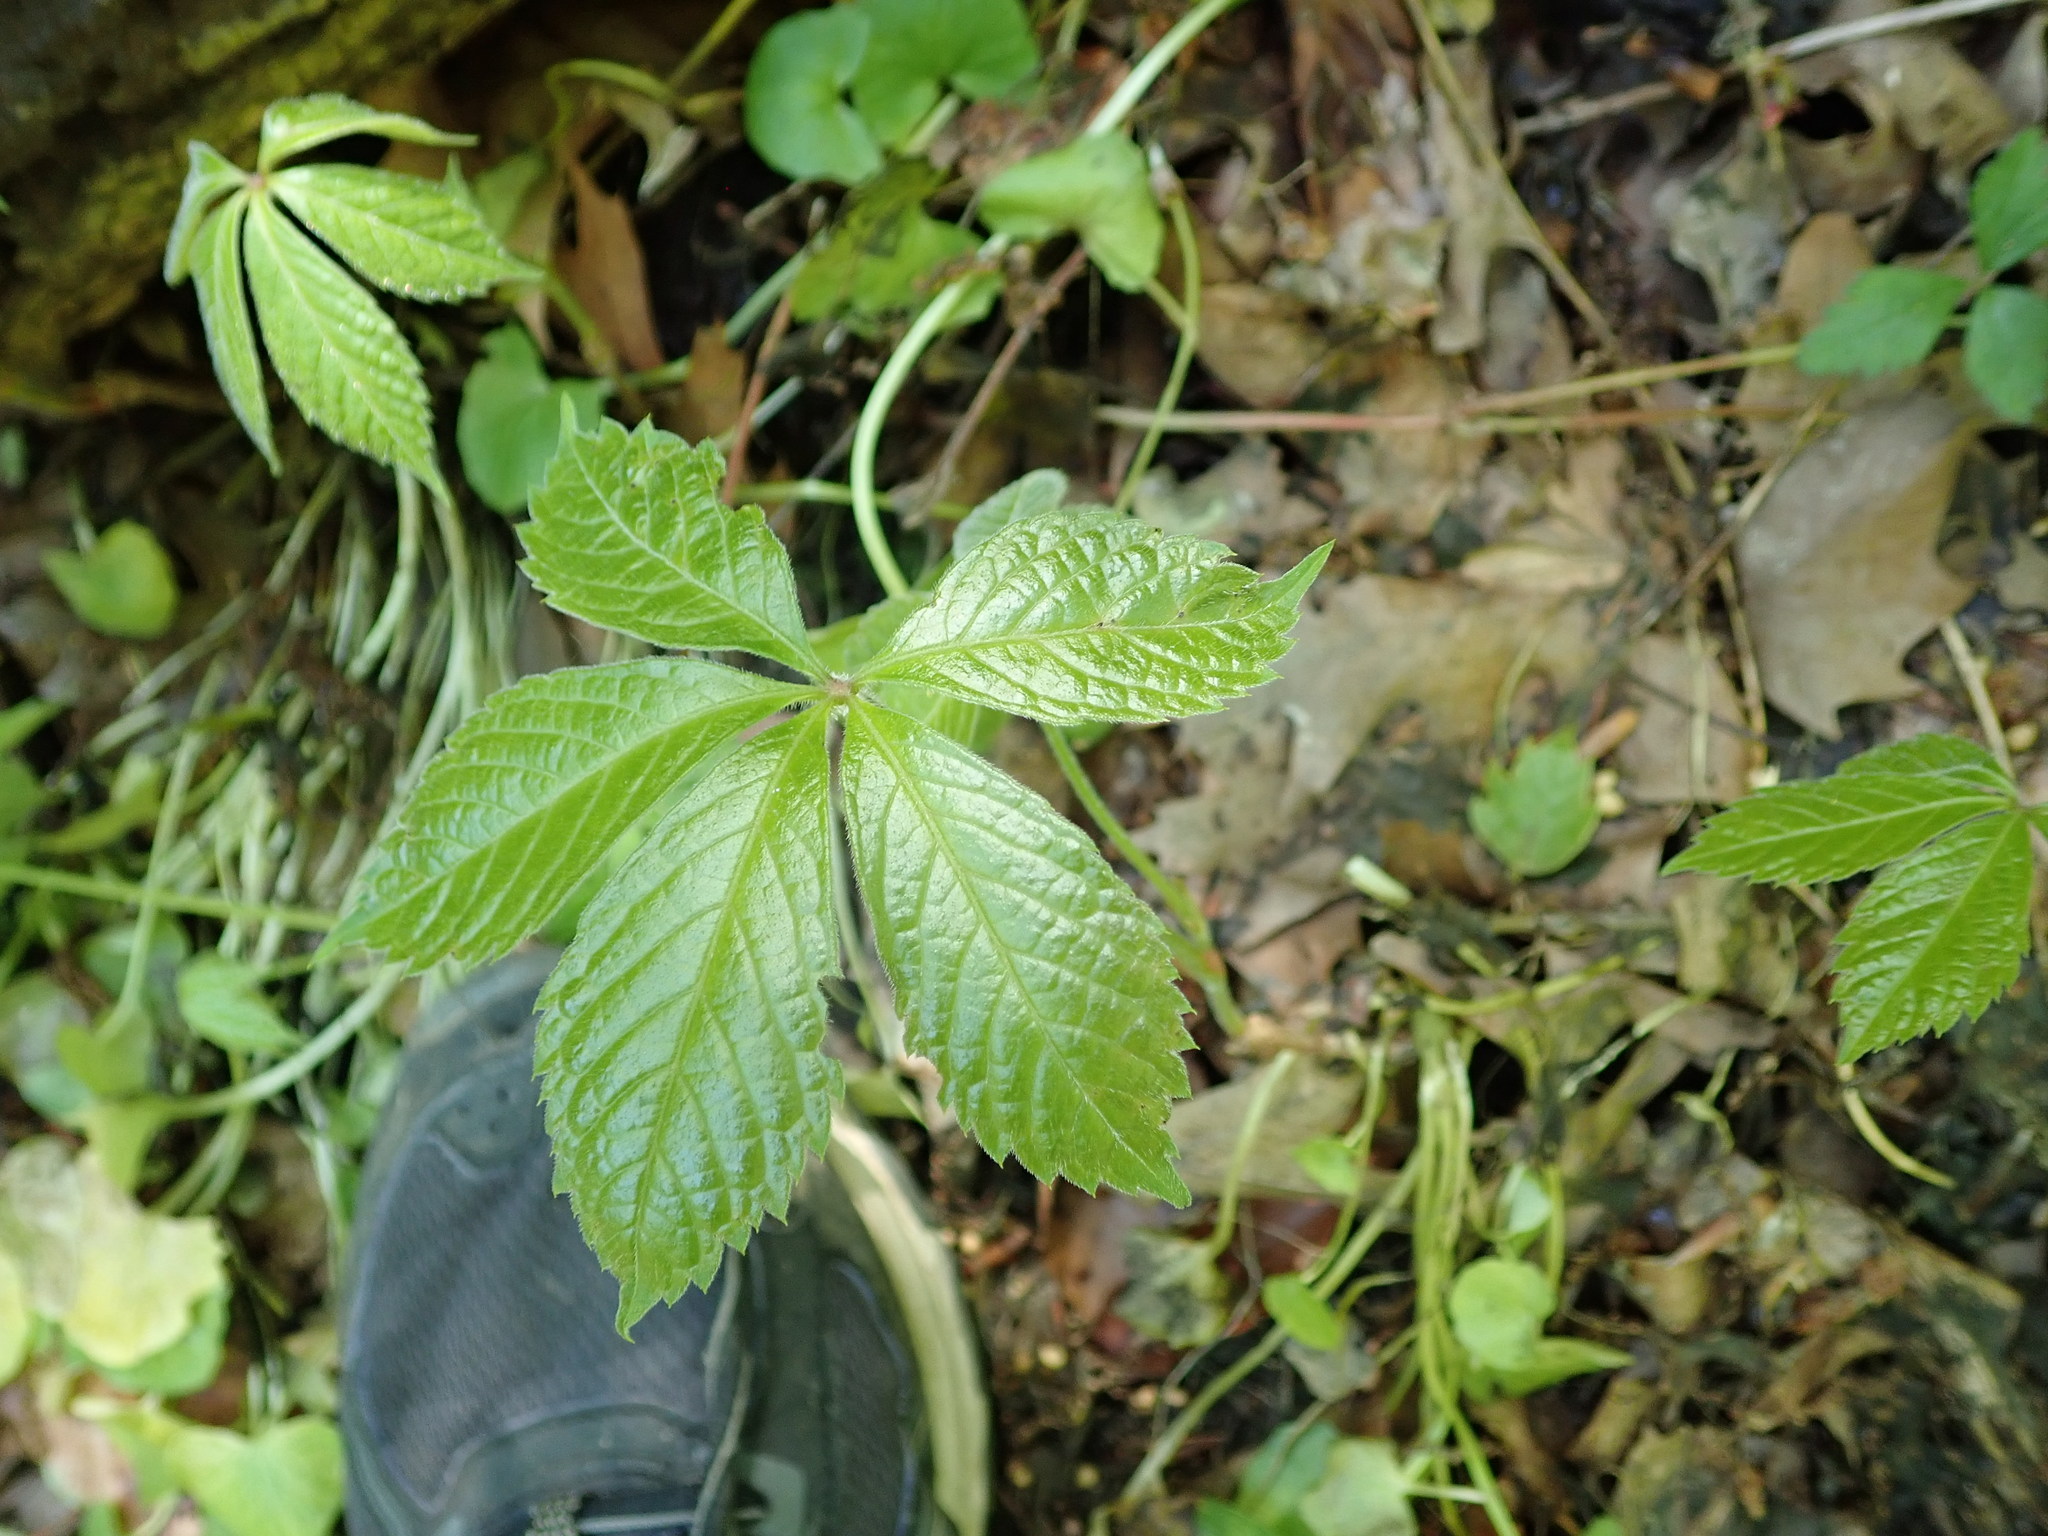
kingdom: Plantae
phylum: Tracheophyta
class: Magnoliopsida
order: Vitales
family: Vitaceae
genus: Parthenocissus
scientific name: Parthenocissus quinquefolia
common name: Virginia-creeper
